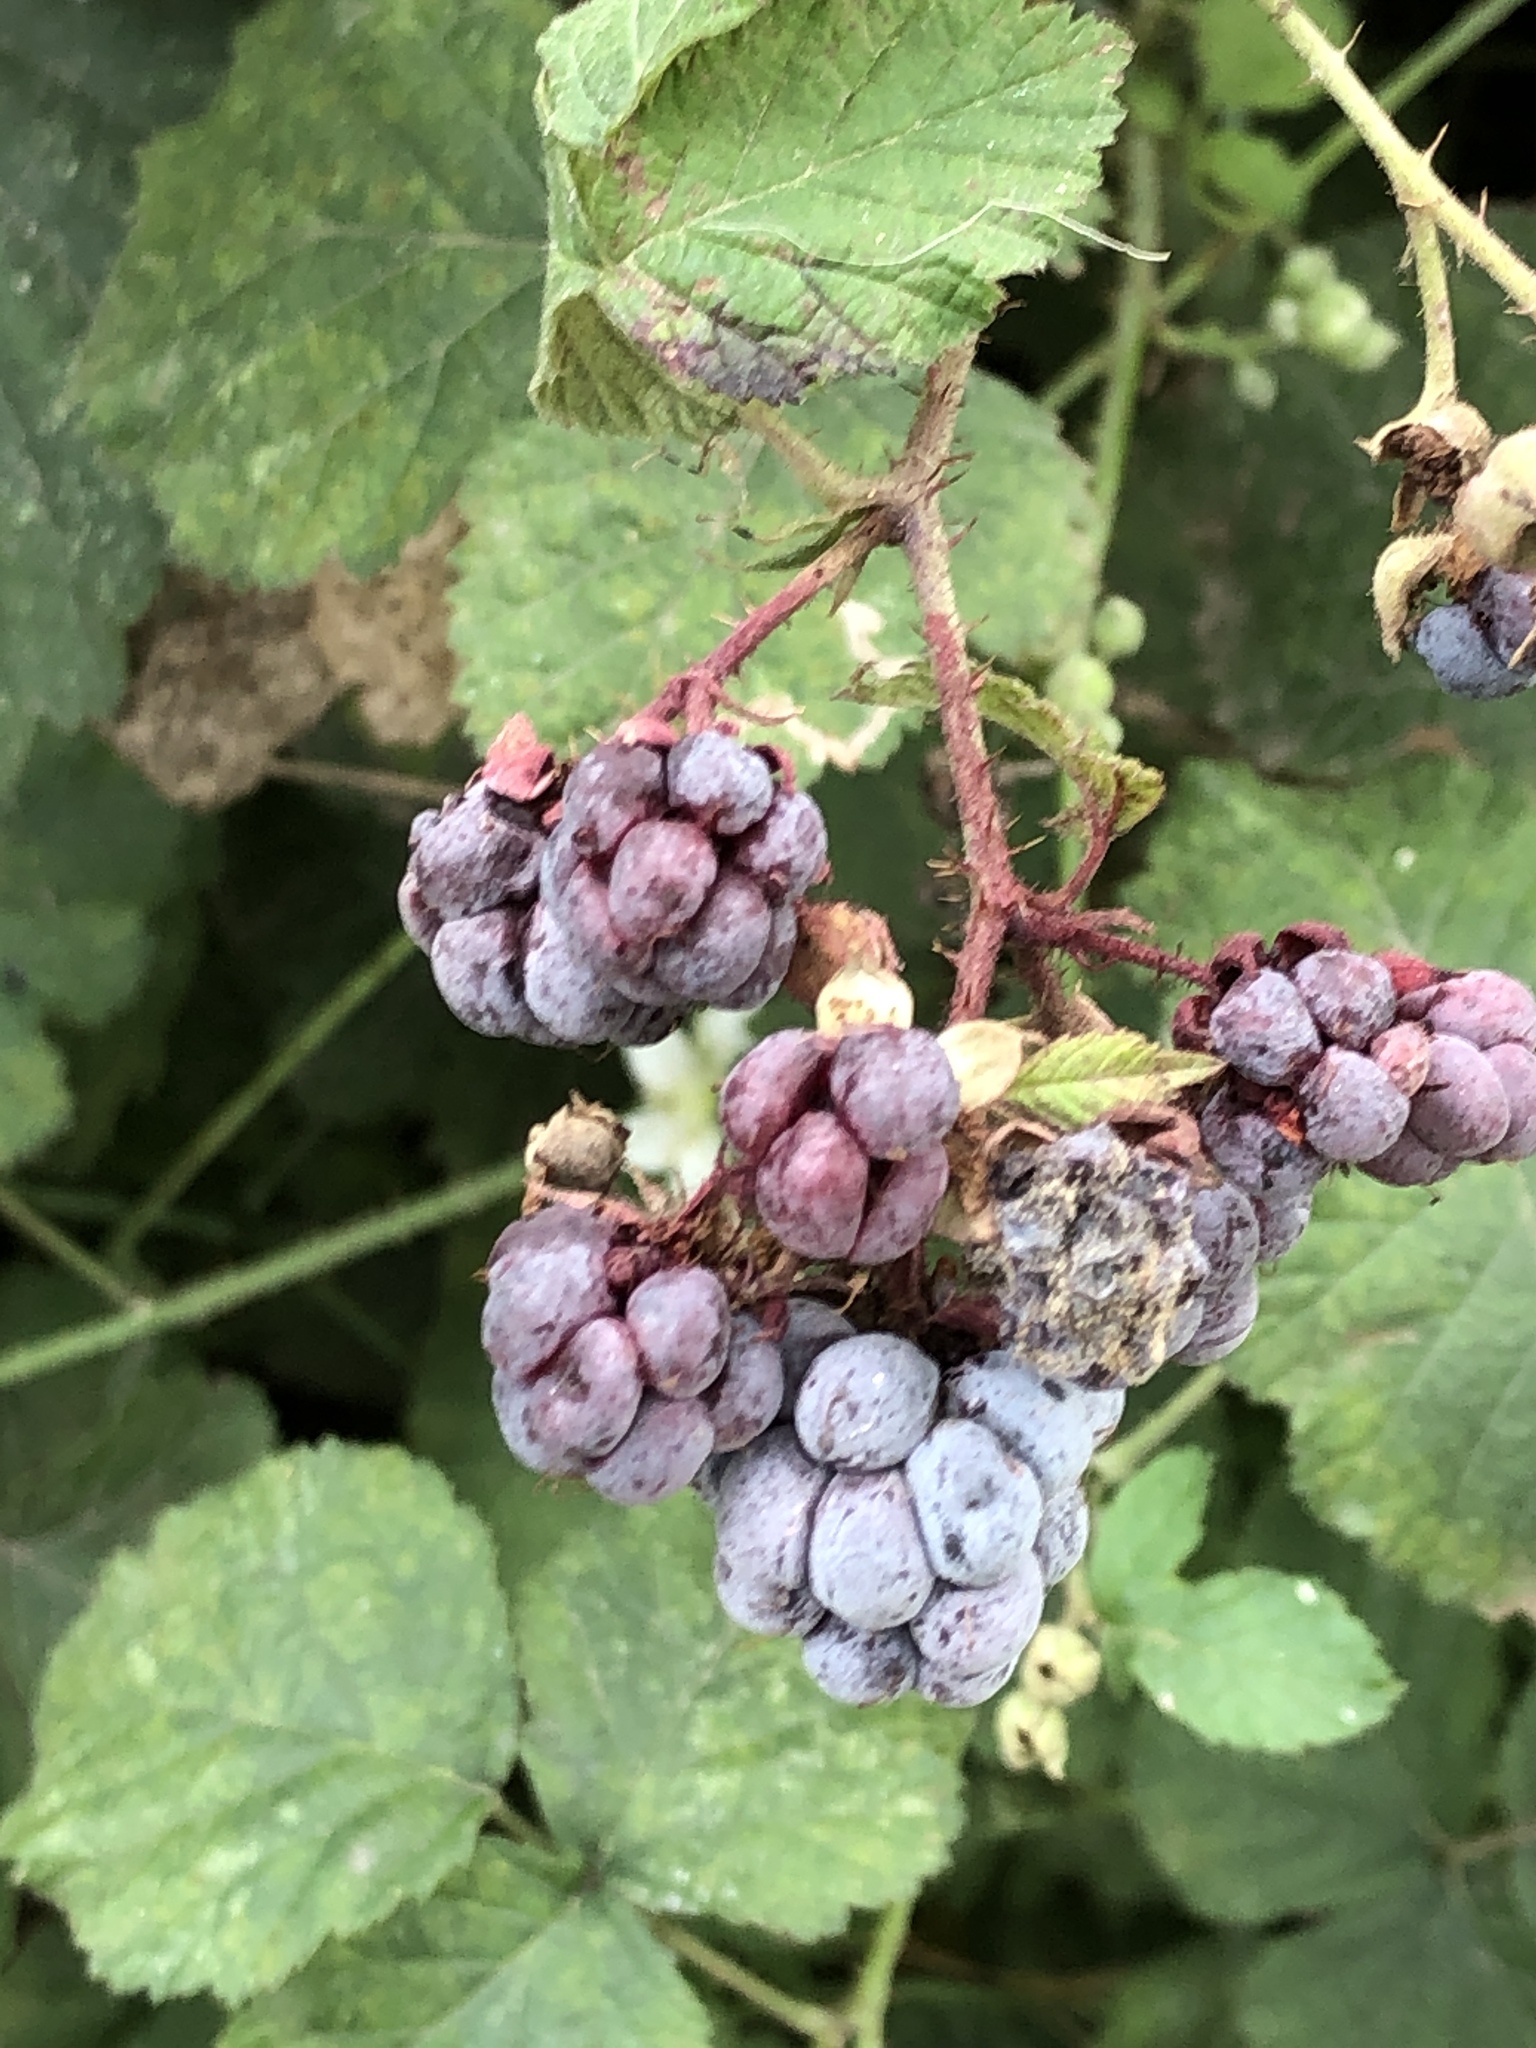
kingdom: Plantae
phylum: Tracheophyta
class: Magnoliopsida
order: Rosales
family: Rosaceae
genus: Rubus
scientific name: Rubus caesius
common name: Dewberry
